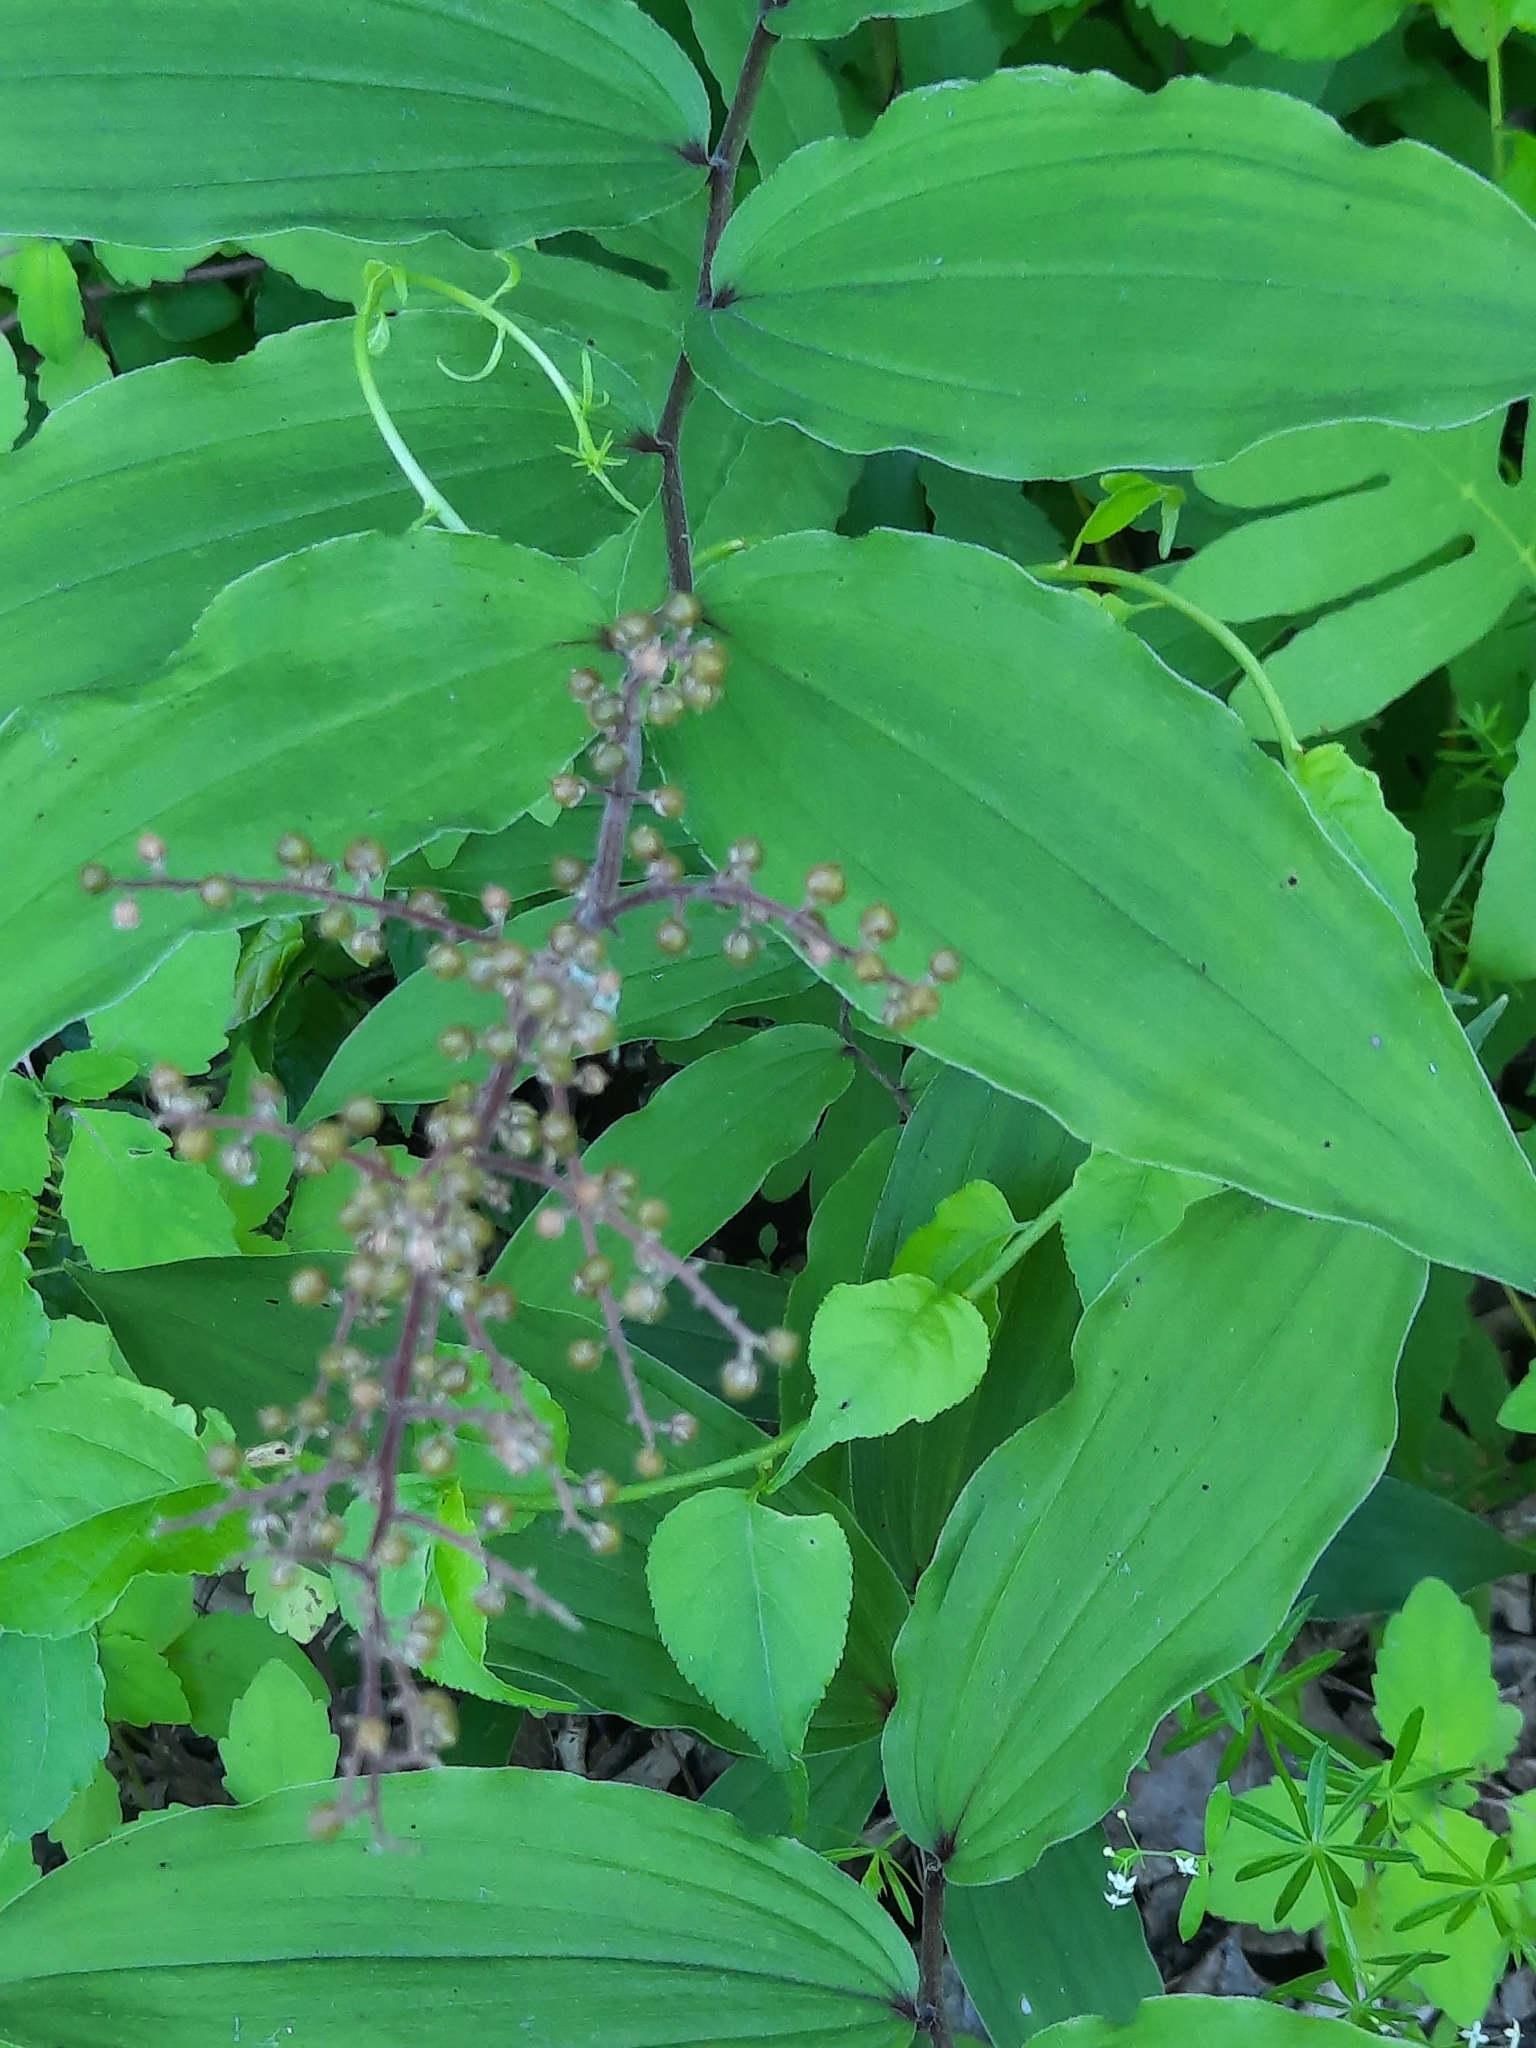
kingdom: Plantae
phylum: Tracheophyta
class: Liliopsida
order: Asparagales
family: Asparagaceae
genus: Maianthemum
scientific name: Maianthemum racemosum
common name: False spikenard
